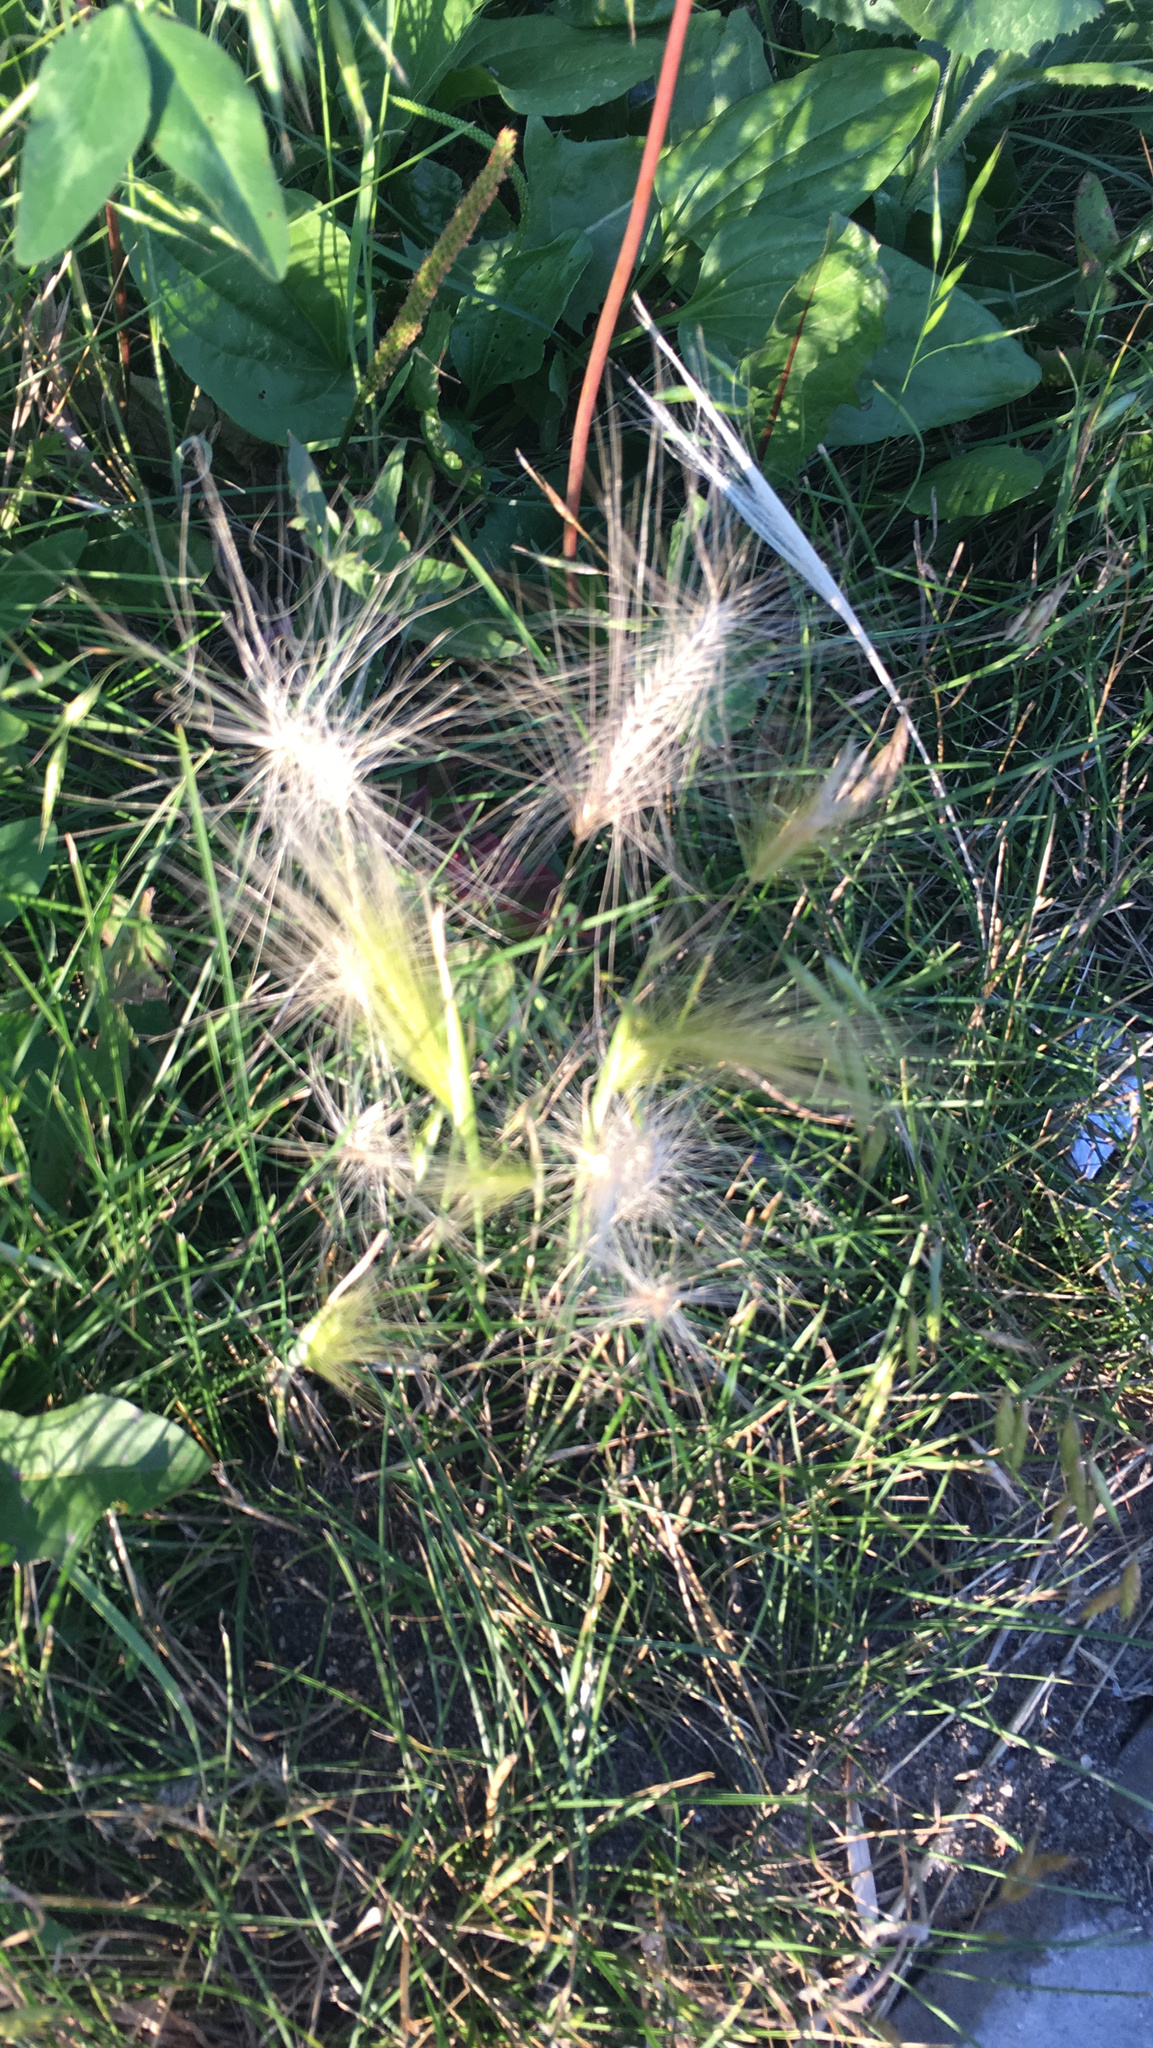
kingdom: Plantae
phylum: Tracheophyta
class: Liliopsida
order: Poales
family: Poaceae
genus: Hordeum
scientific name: Hordeum jubatum
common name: Foxtail barley
